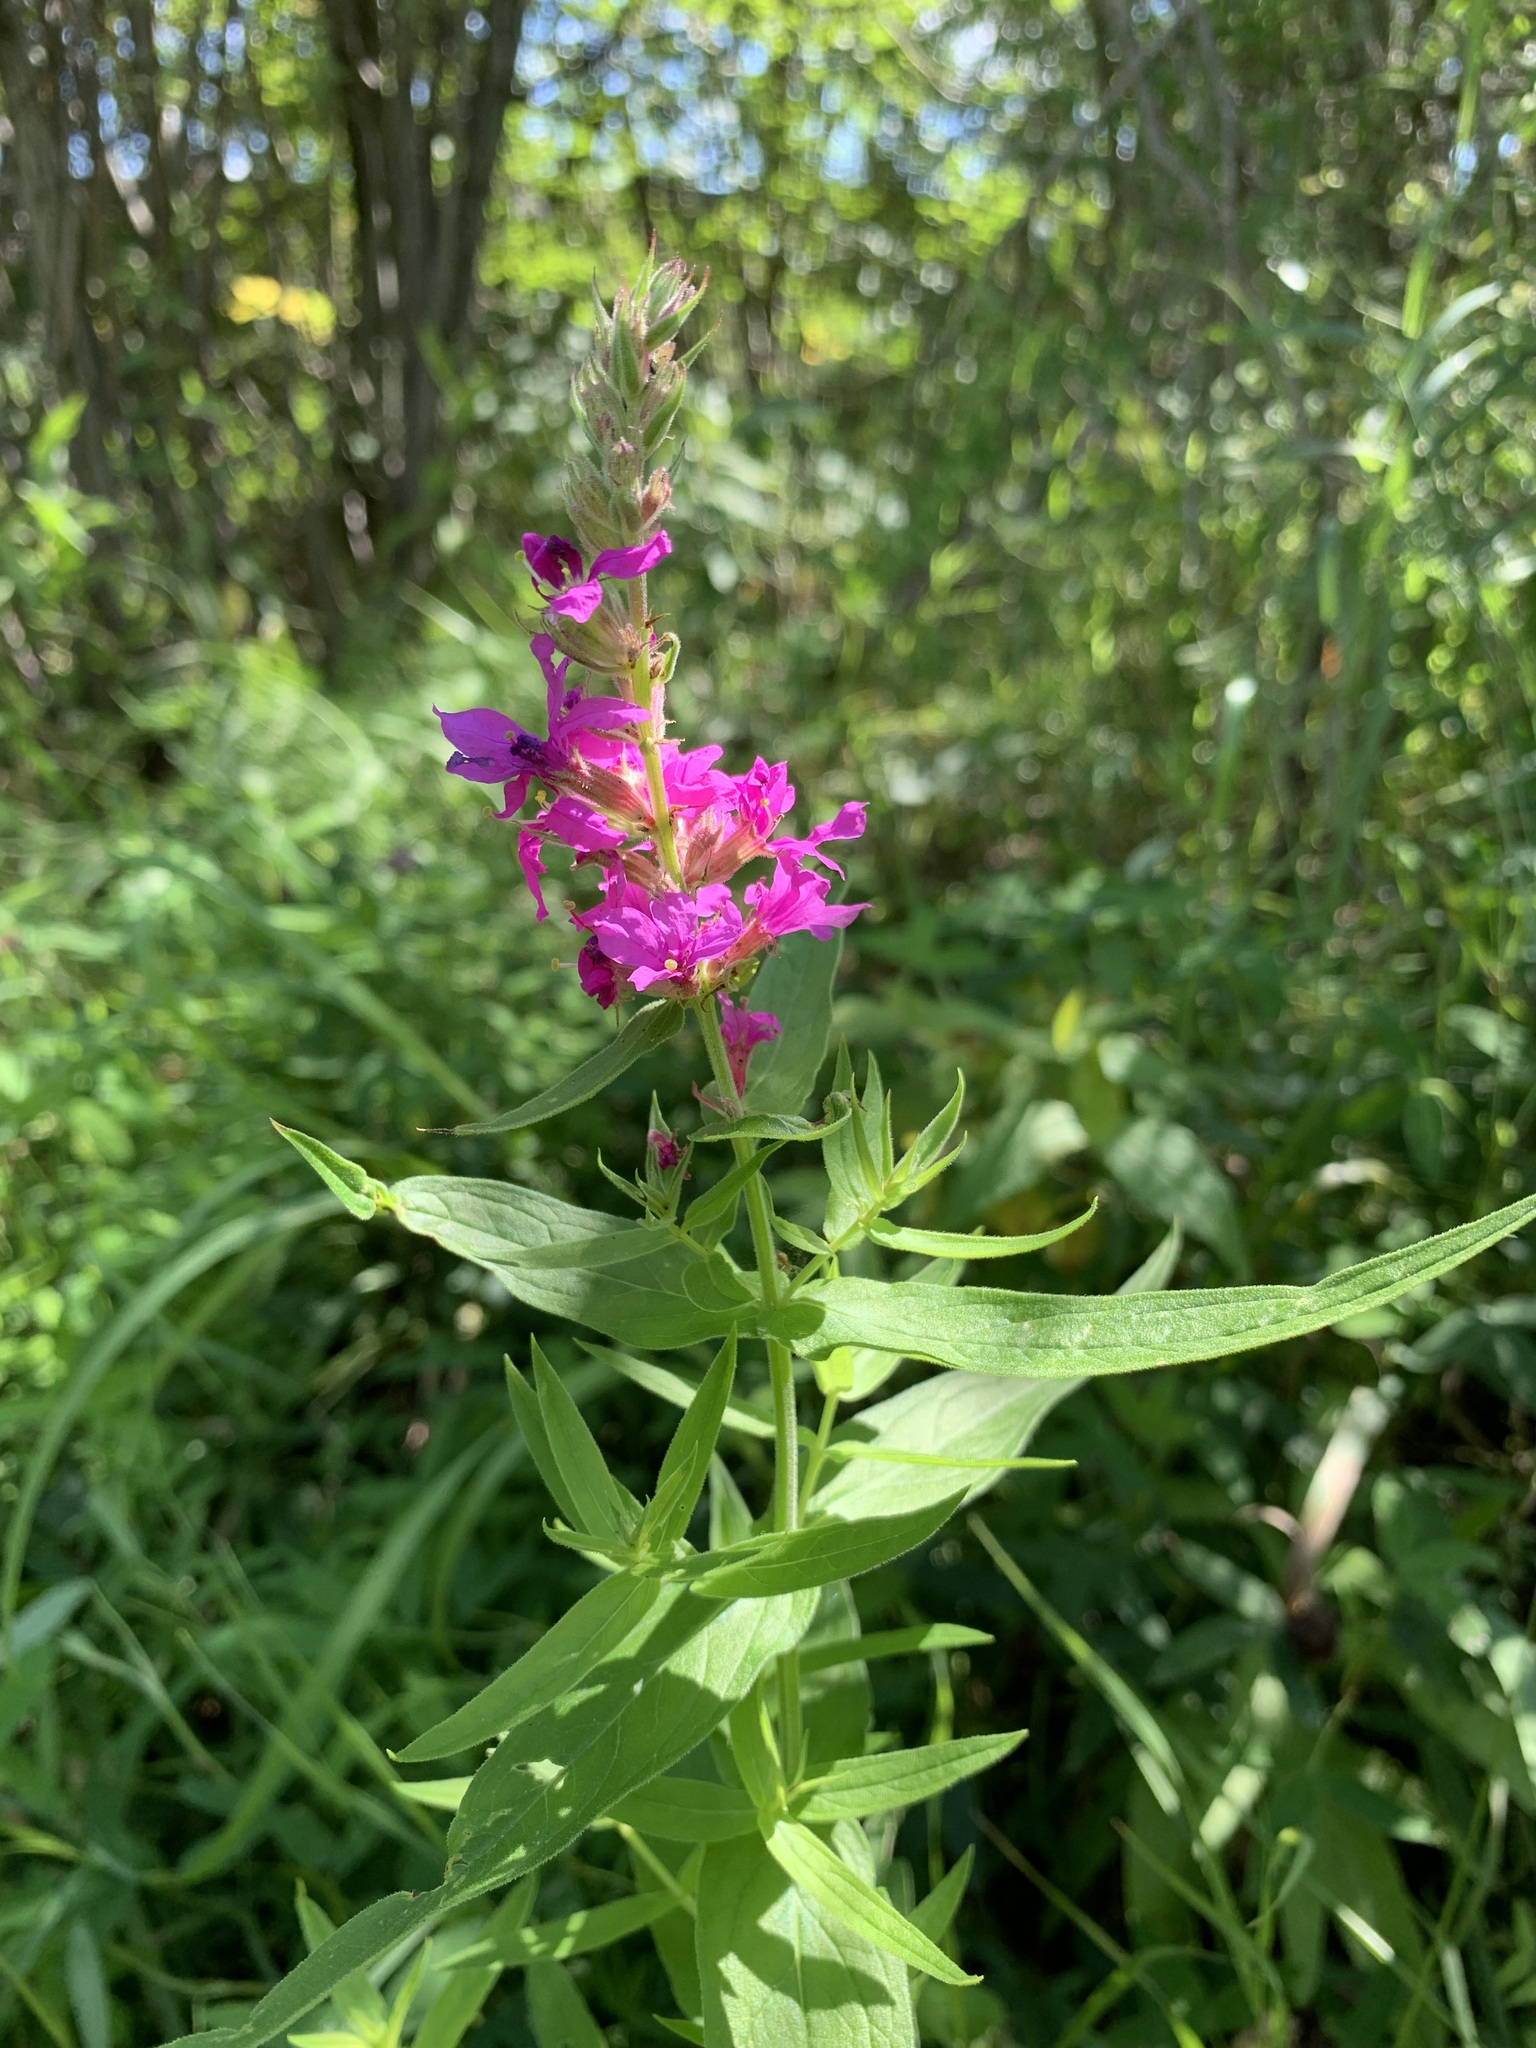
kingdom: Plantae
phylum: Tracheophyta
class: Magnoliopsida
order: Myrtales
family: Lythraceae
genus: Lythrum
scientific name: Lythrum salicaria
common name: Purple loosestrife
